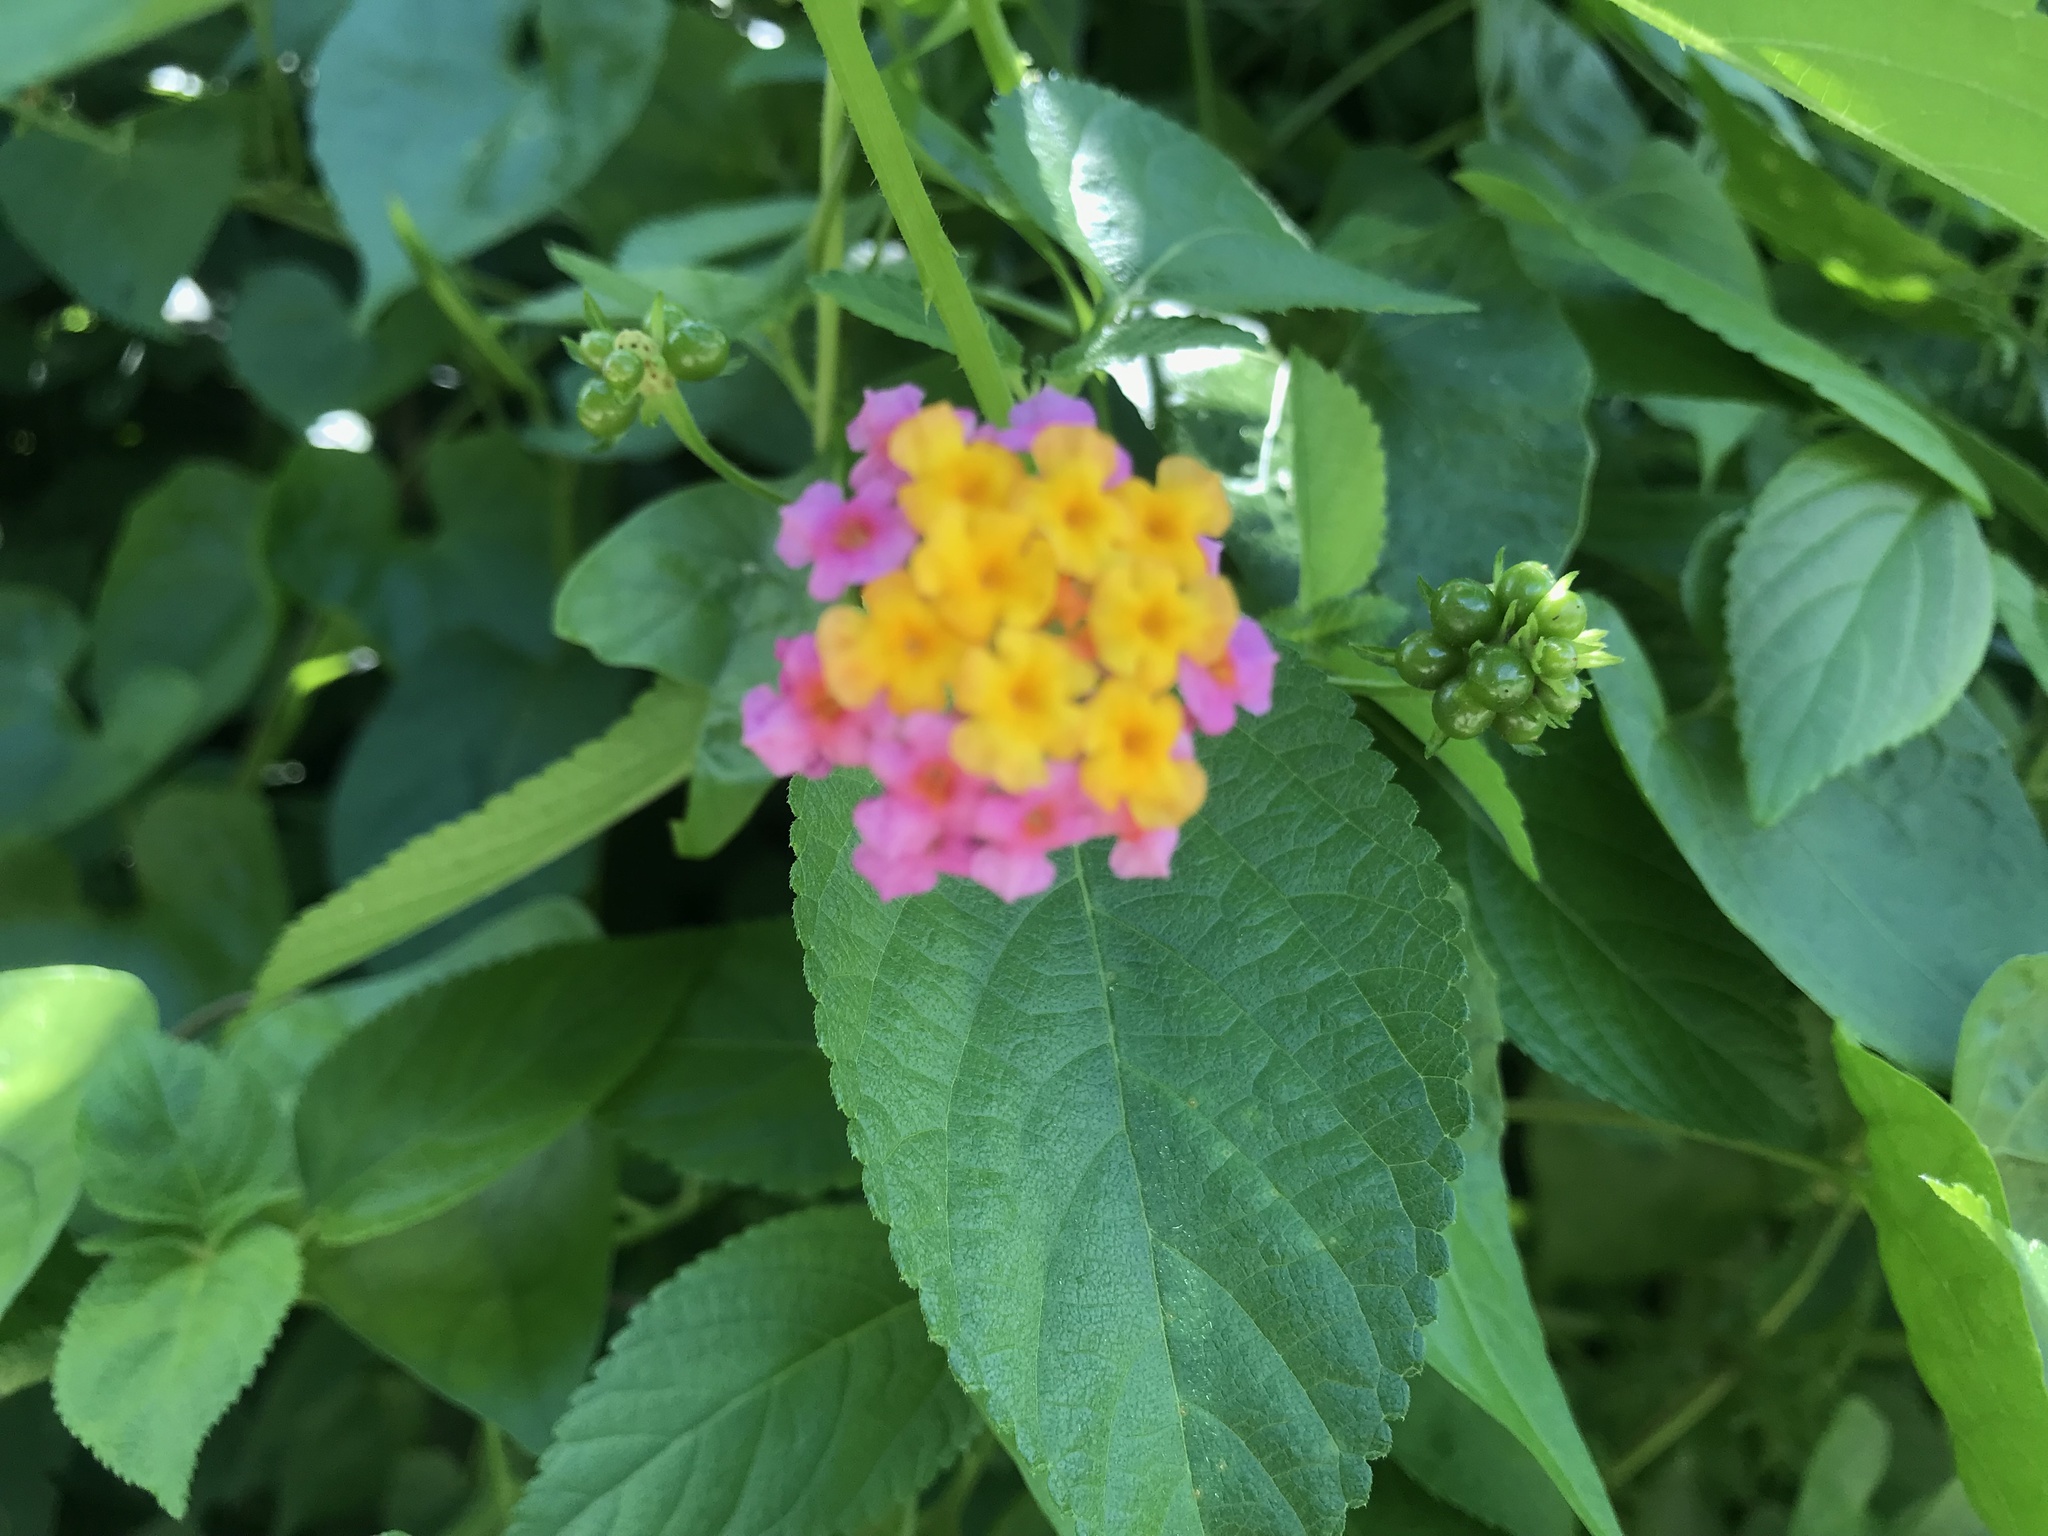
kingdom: Plantae
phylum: Tracheophyta
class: Magnoliopsida
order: Lamiales
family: Verbenaceae
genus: Lantana
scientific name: Lantana camara
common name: Lantana
